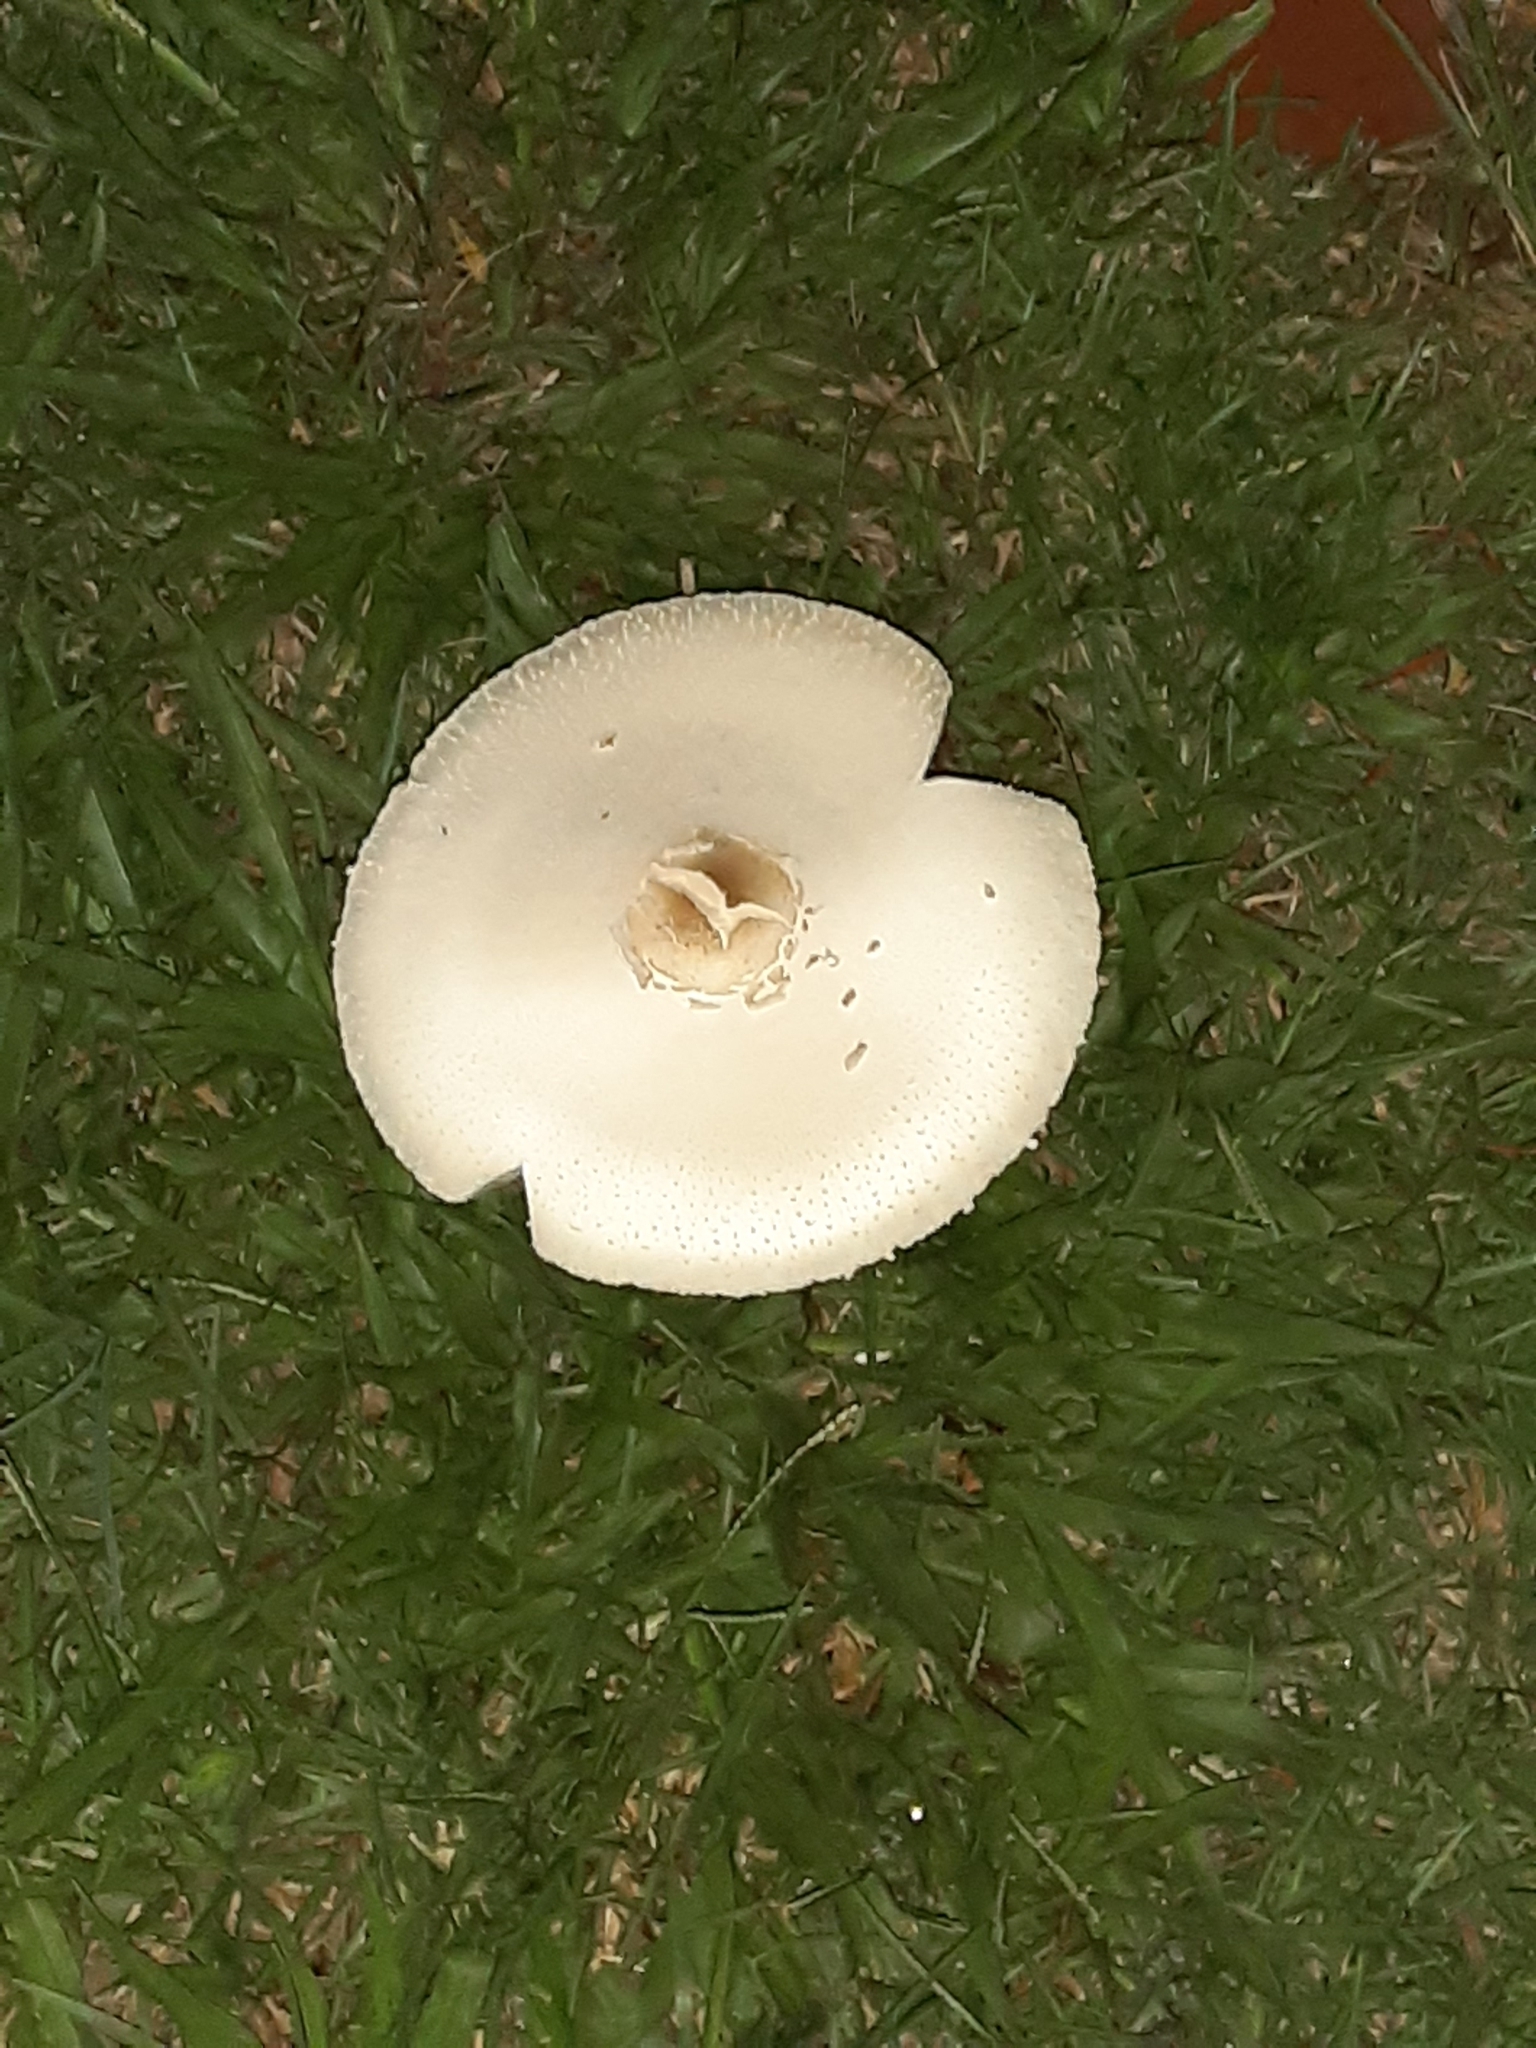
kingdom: Fungi
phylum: Basidiomycota
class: Agaricomycetes
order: Agaricales
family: Agaricaceae
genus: Chlorophyllum
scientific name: Chlorophyllum molybdites
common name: False parasol
